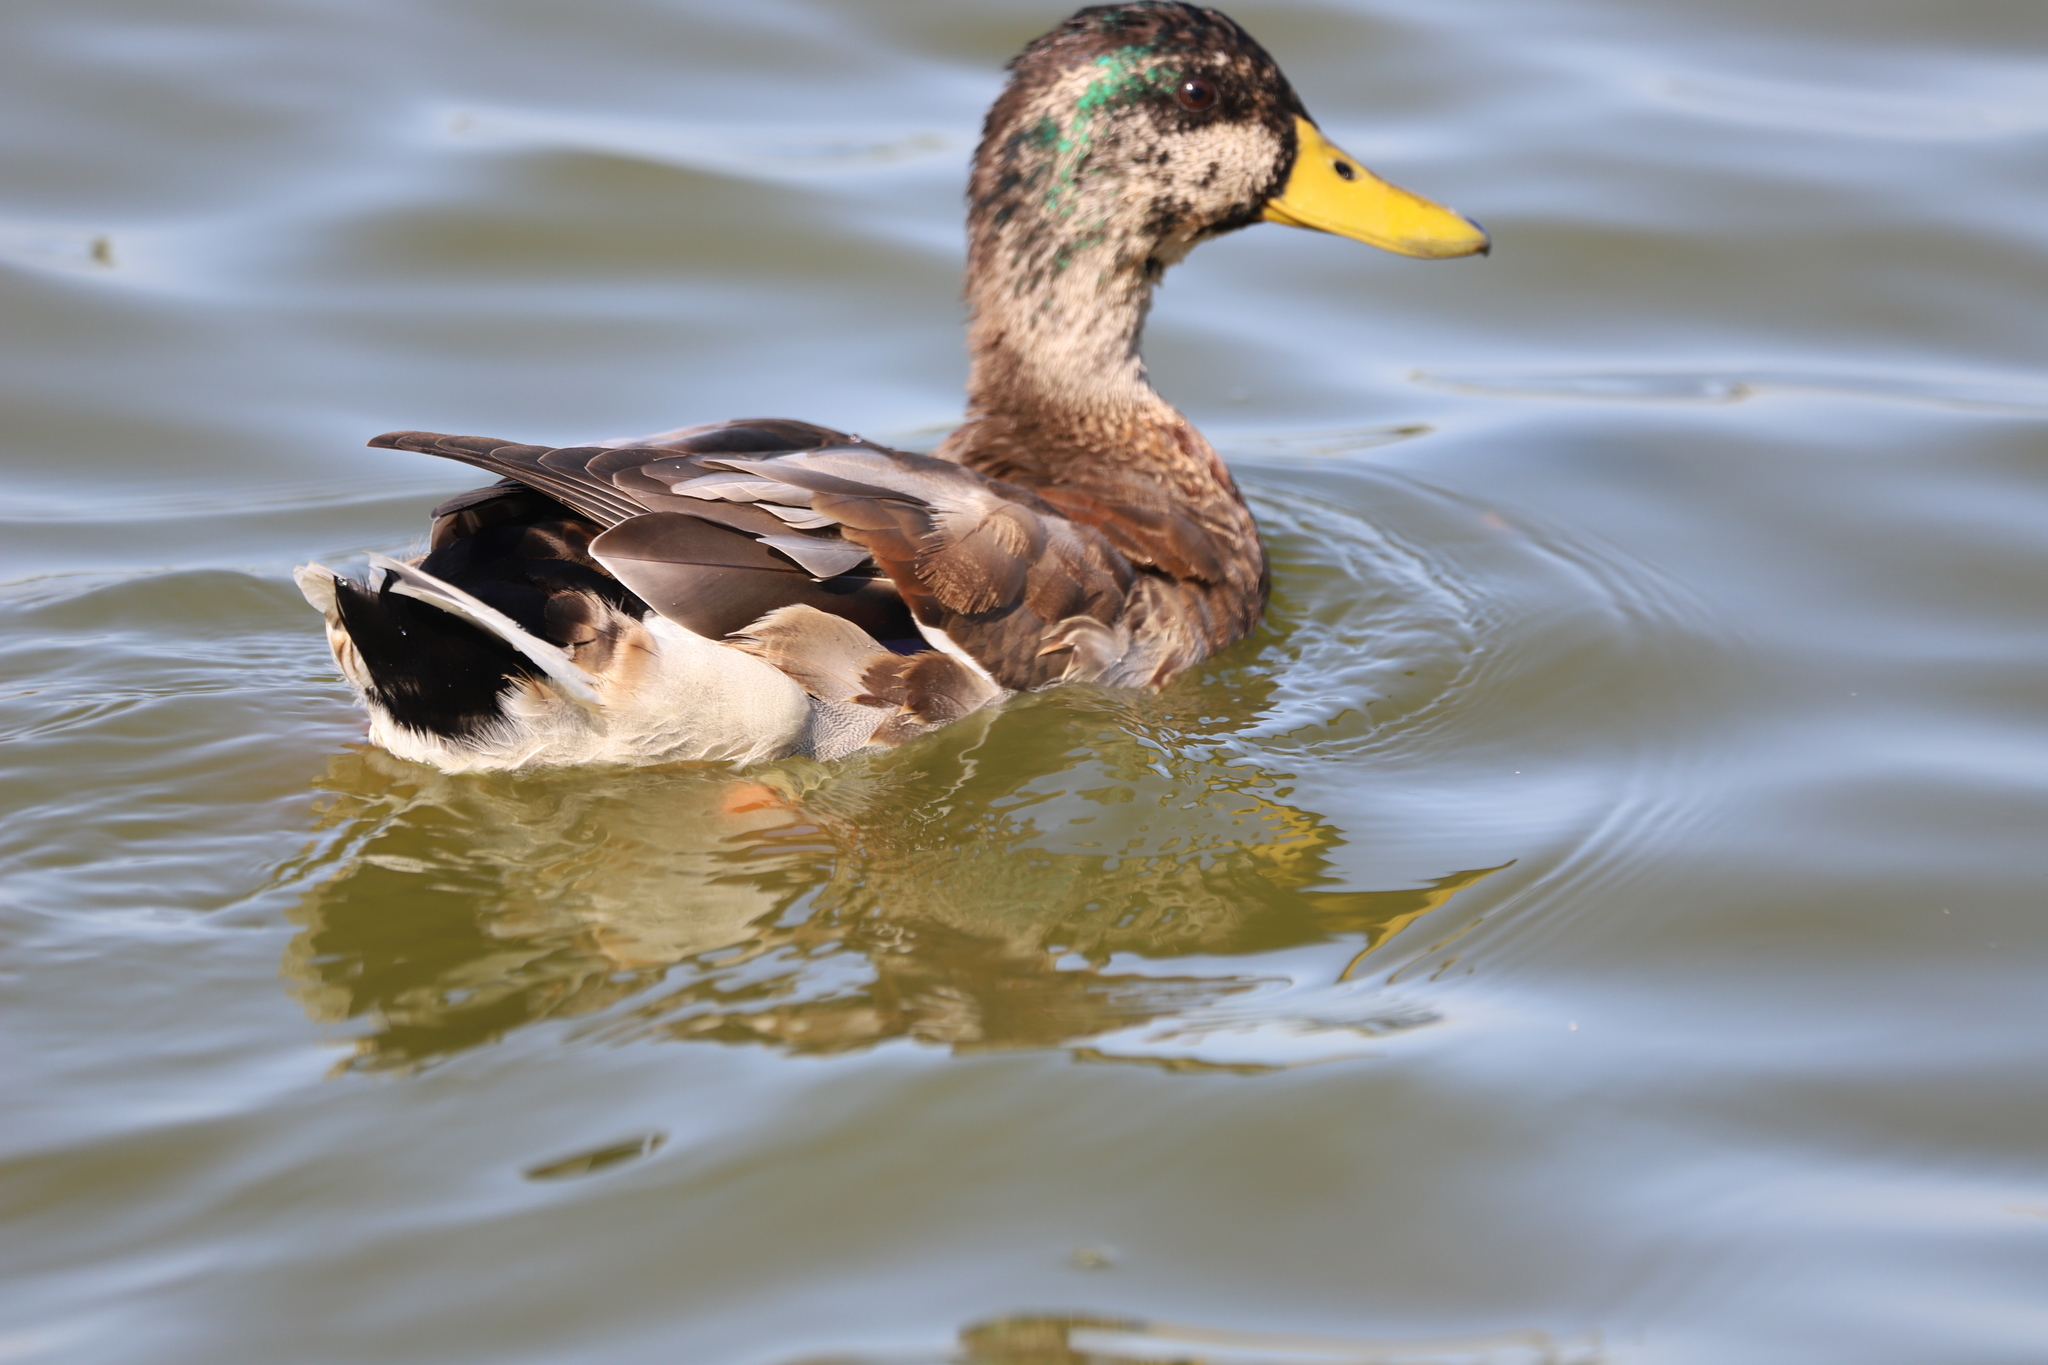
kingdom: Animalia
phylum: Chordata
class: Aves
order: Anseriformes
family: Anatidae
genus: Anas
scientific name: Anas platyrhynchos
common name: Mallard
